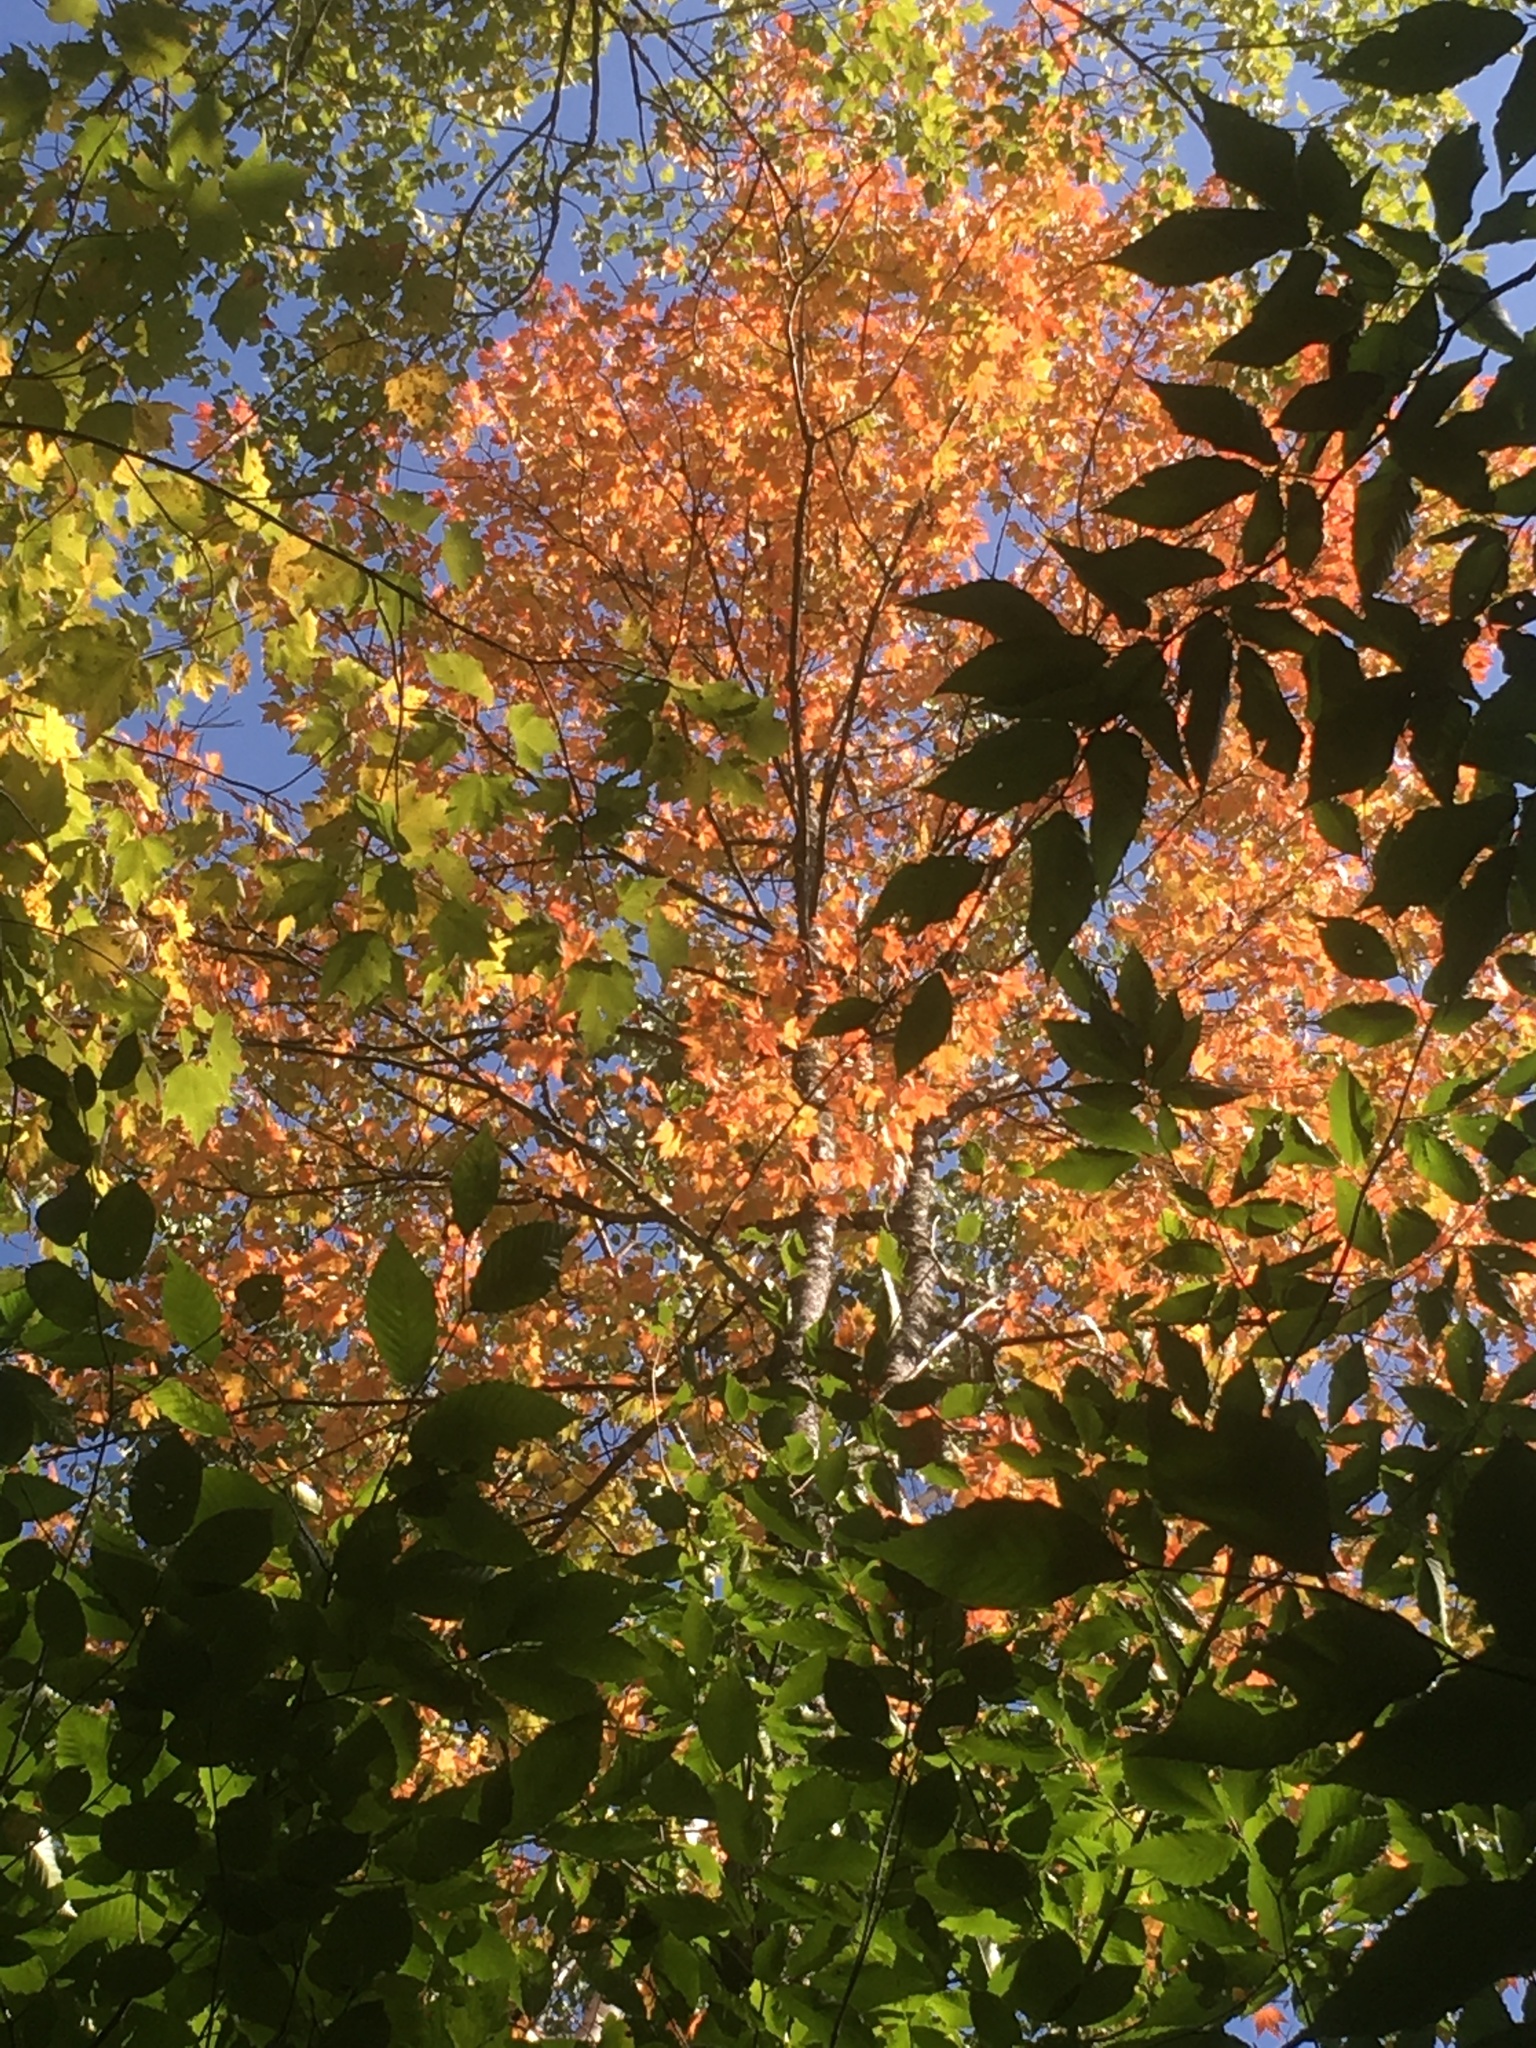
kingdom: Plantae
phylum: Tracheophyta
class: Magnoliopsida
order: Sapindales
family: Sapindaceae
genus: Acer
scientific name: Acer rubrum
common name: Red maple
